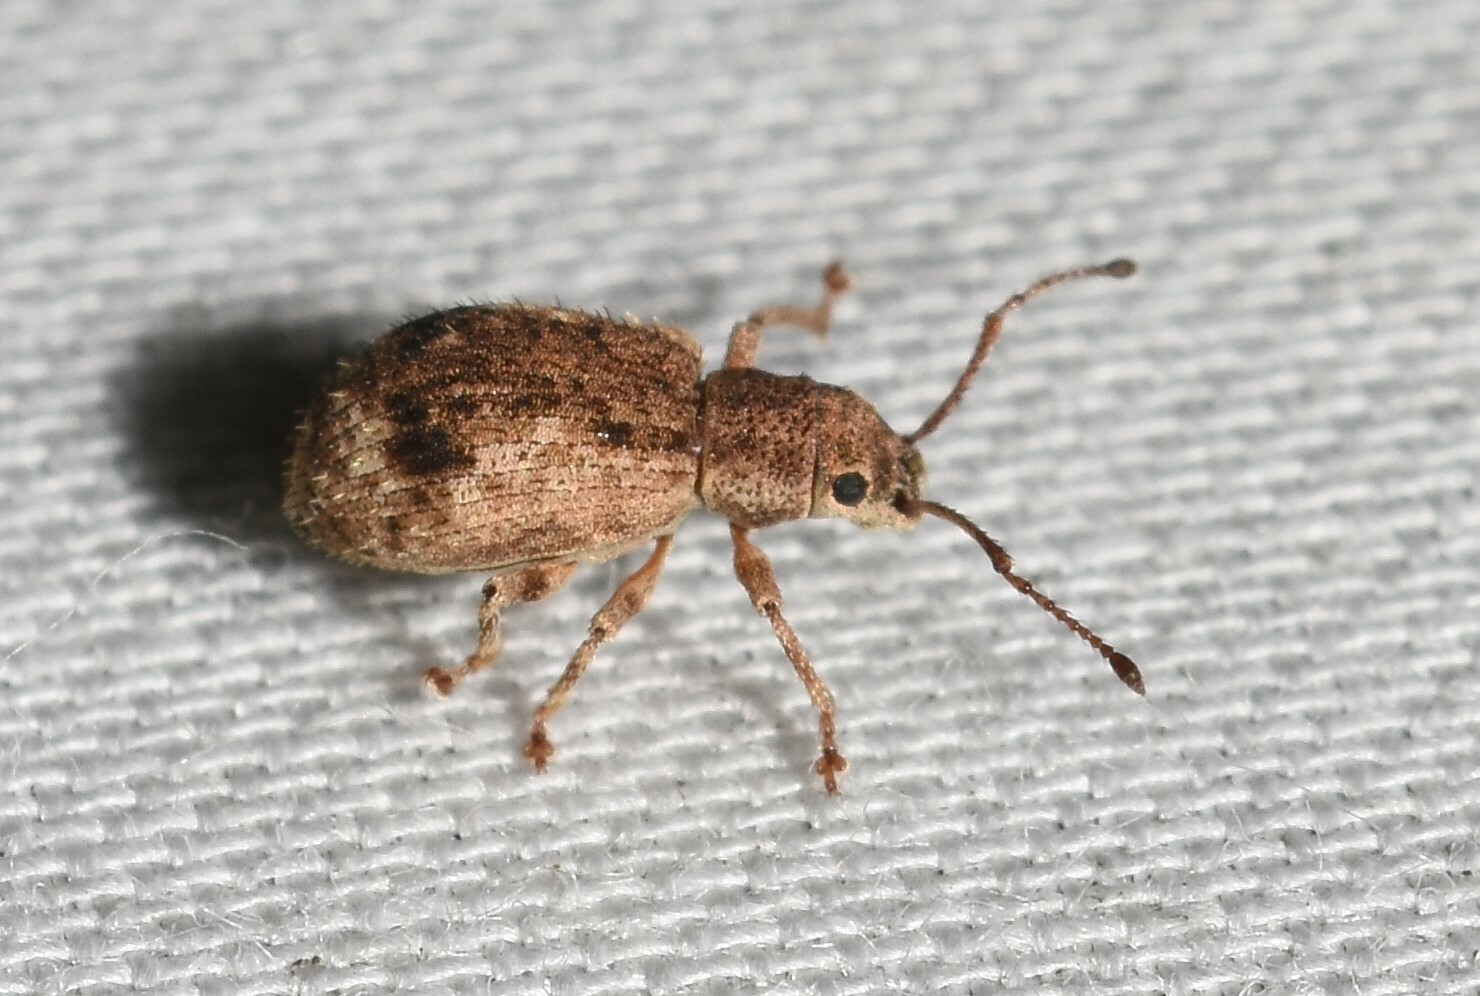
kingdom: Animalia
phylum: Arthropoda
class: Insecta
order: Coleoptera
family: Curculionidae
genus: Pseudoedophrys
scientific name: Pseudoedophrys hilleri
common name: Weevil
